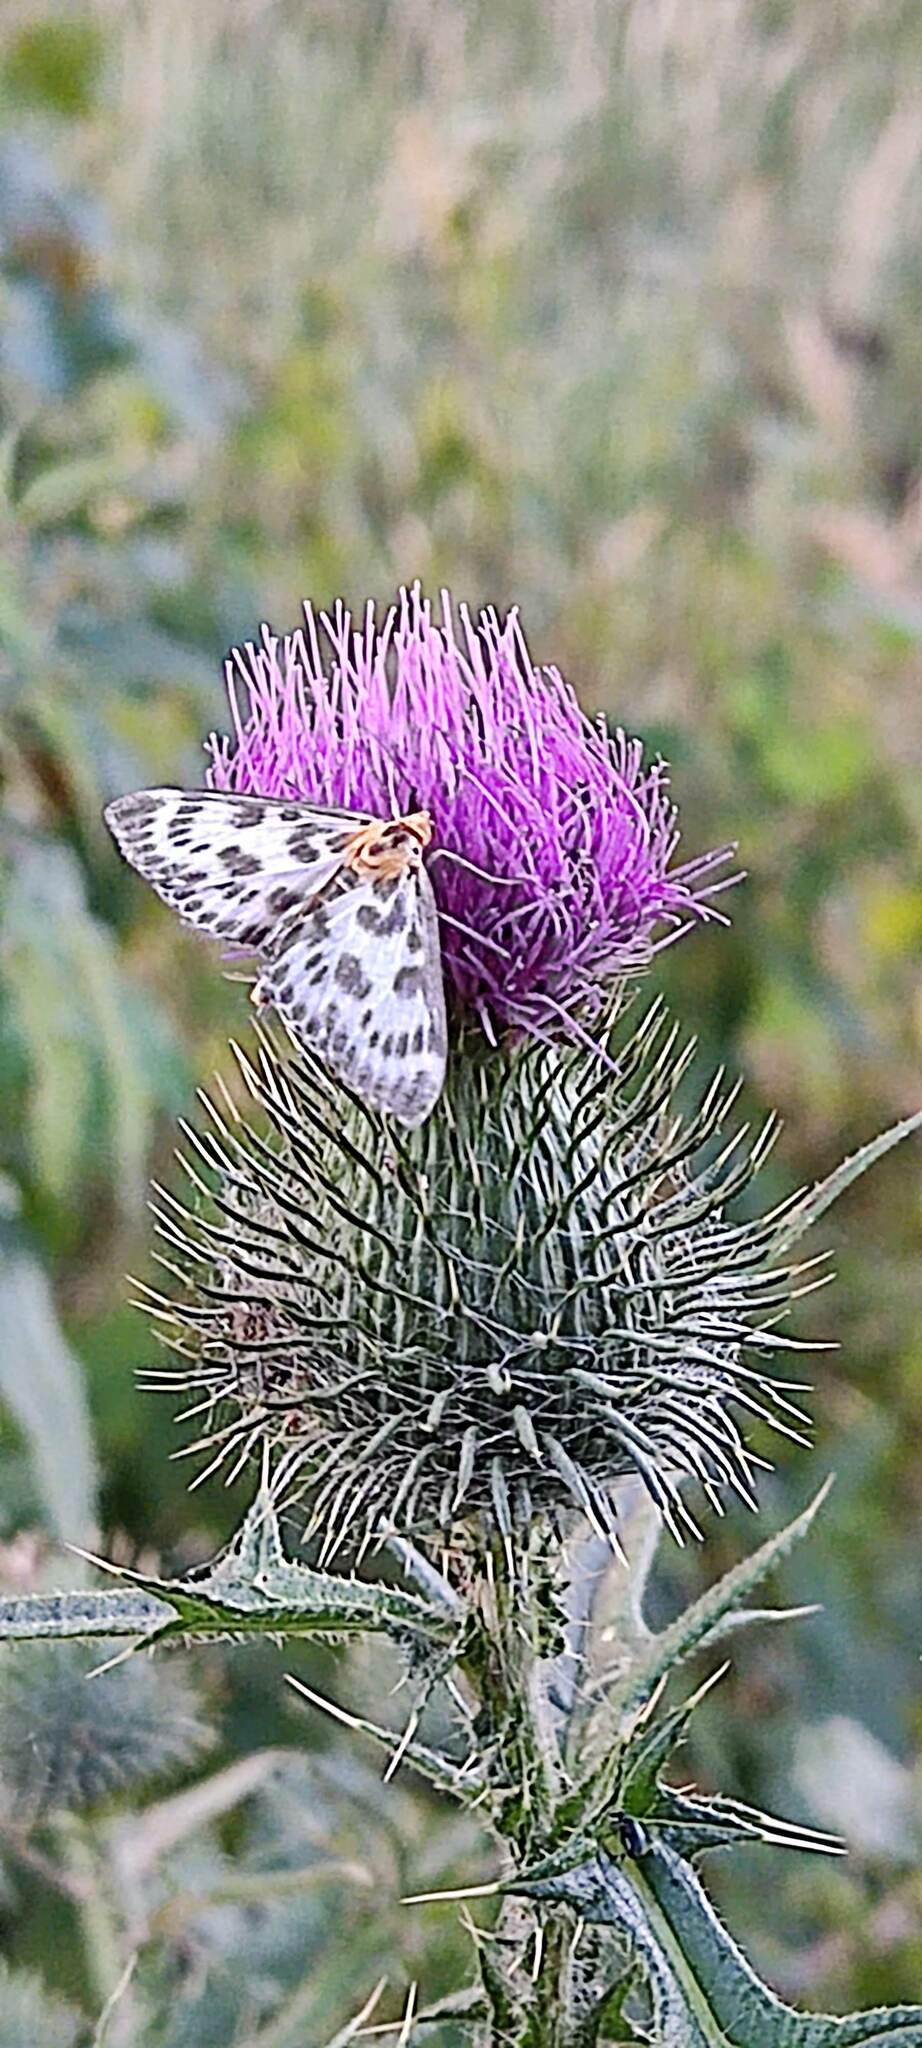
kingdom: Animalia
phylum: Arthropoda
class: Insecta
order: Lepidoptera
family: Crambidae
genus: Anania
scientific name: Anania hortulata
